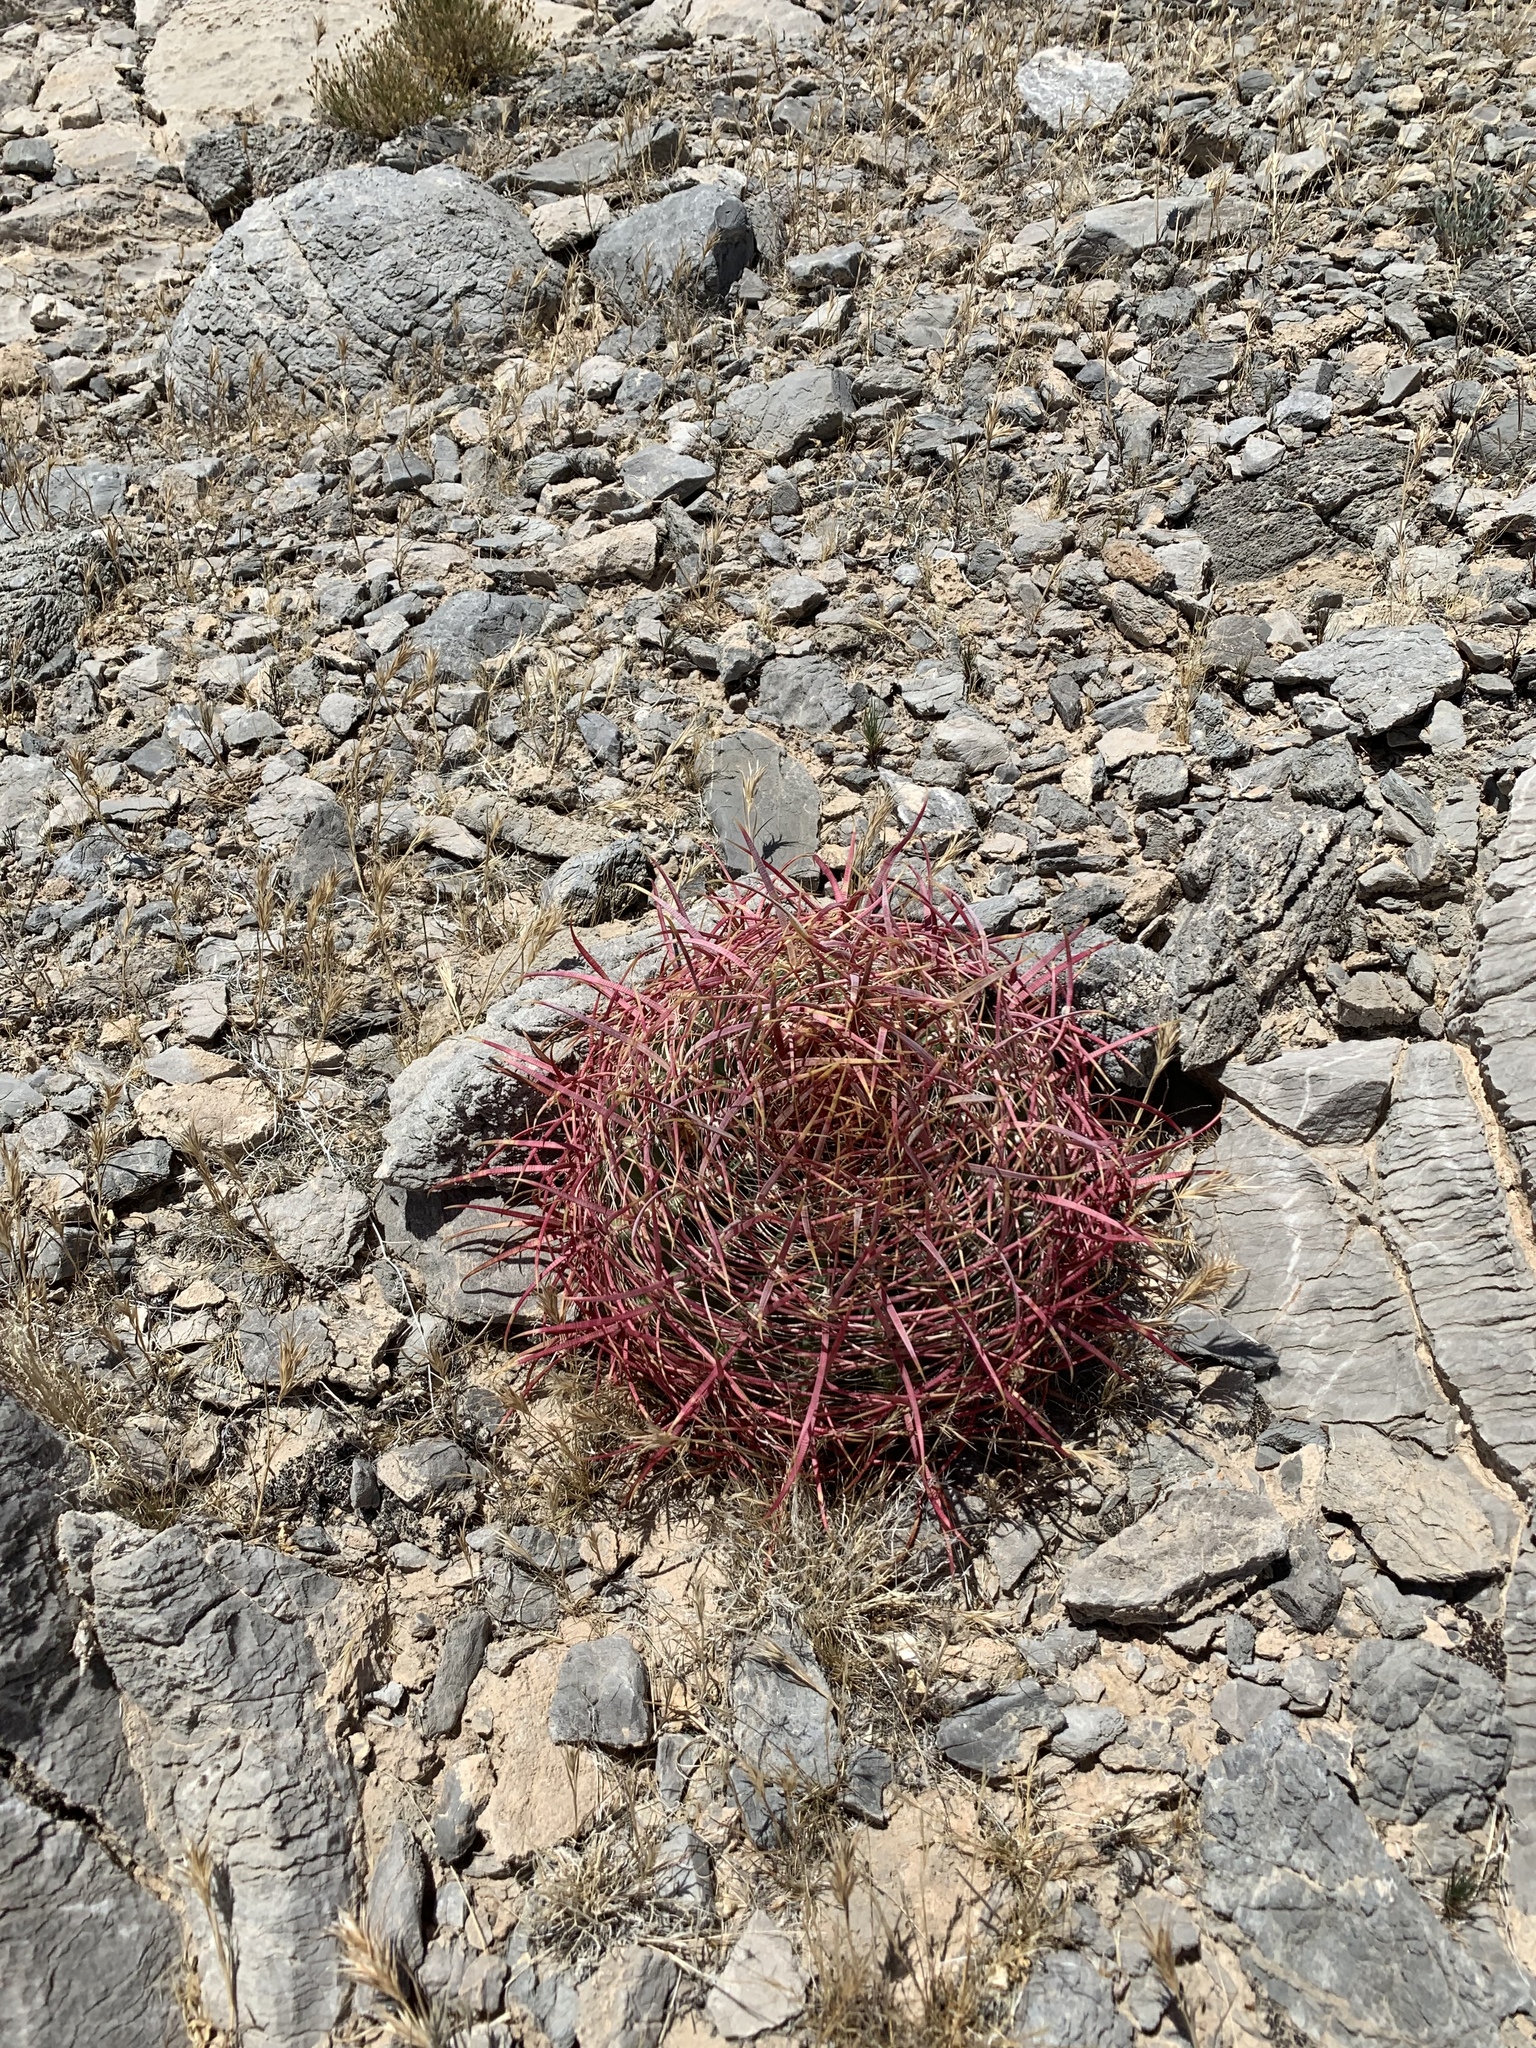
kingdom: Plantae
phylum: Tracheophyta
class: Magnoliopsida
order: Caryophyllales
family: Cactaceae
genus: Ferocactus
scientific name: Ferocactus cylindraceus
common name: California barrel cactus
